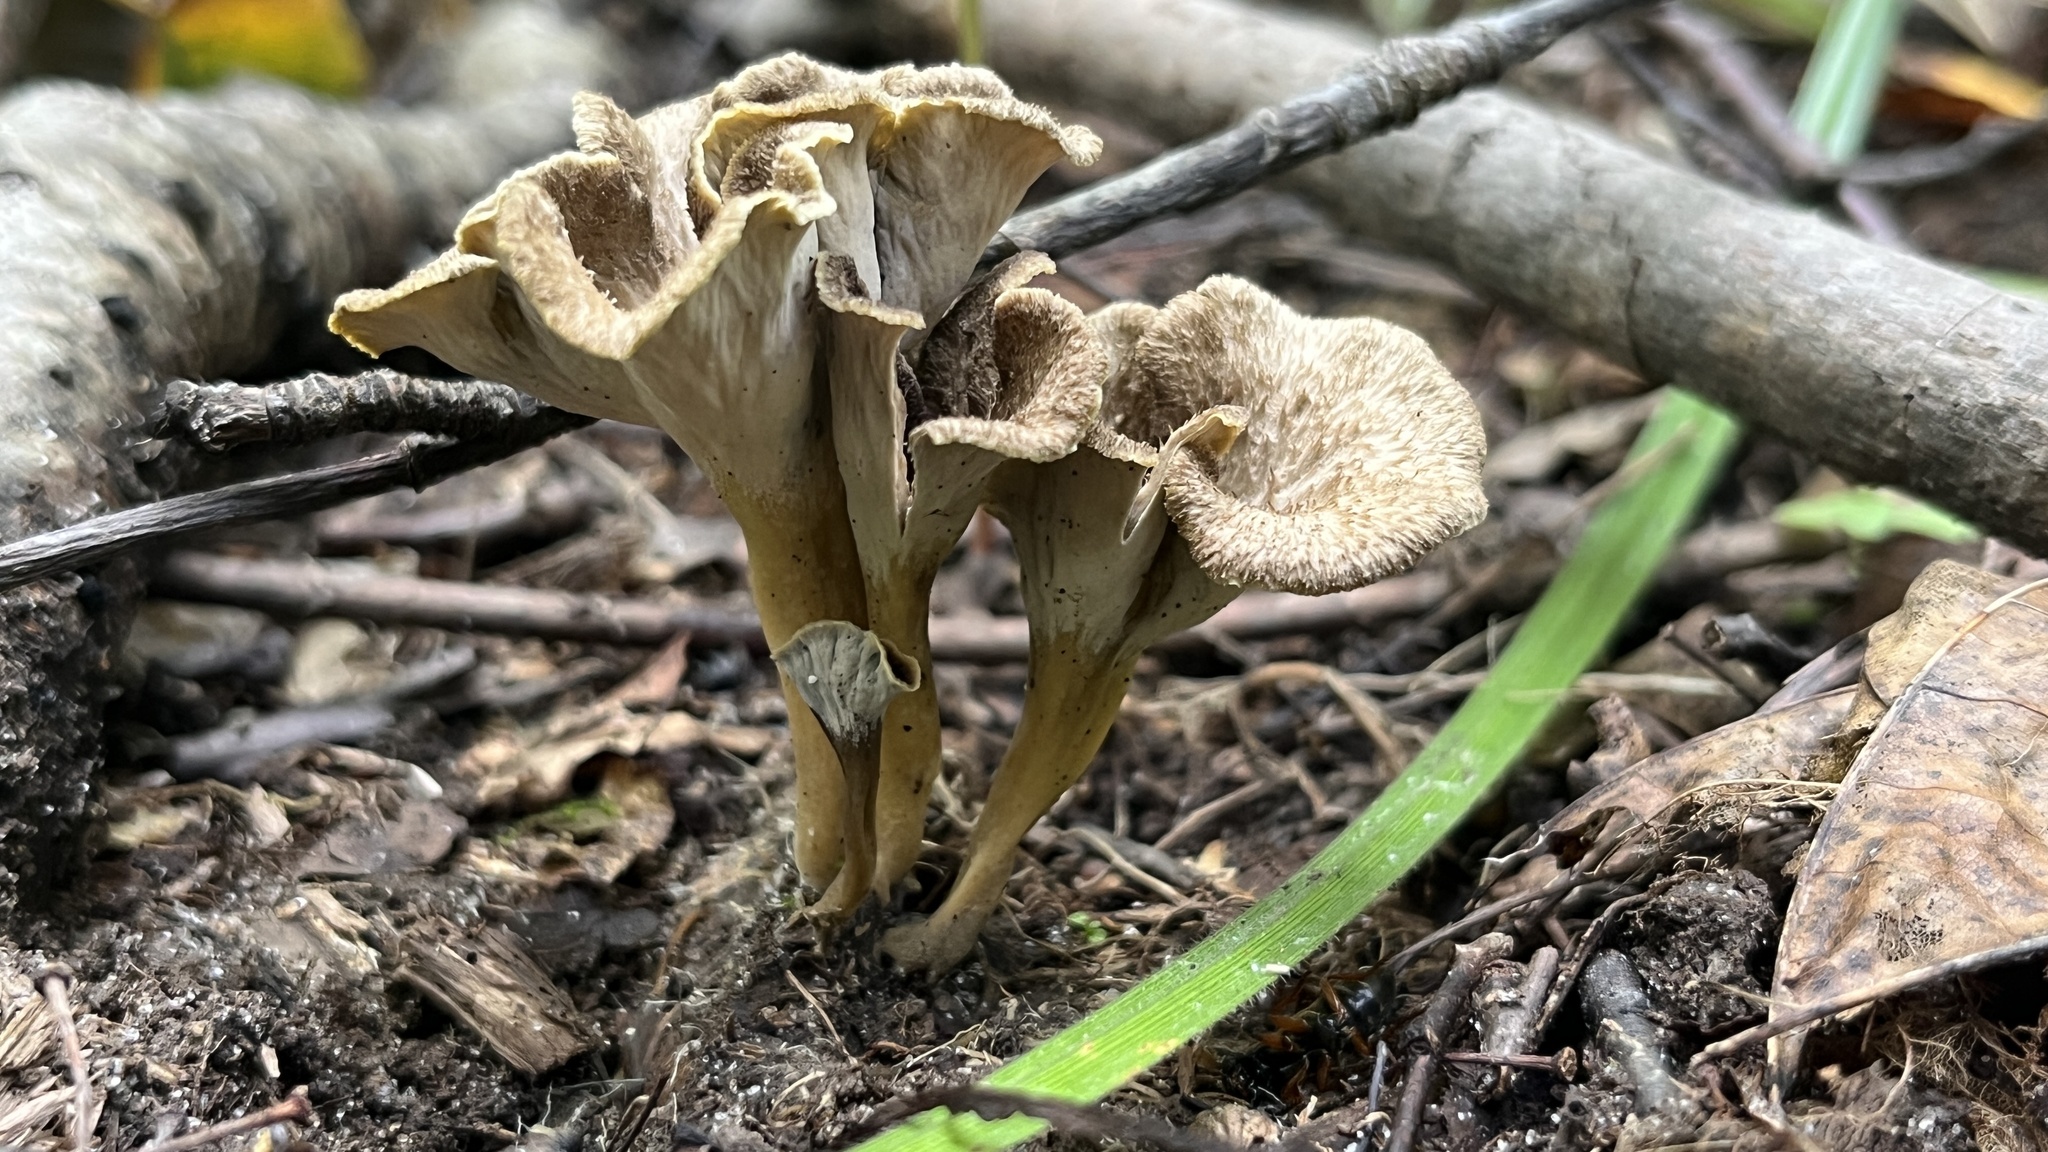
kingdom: Fungi
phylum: Basidiomycota
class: Agaricomycetes
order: Cantharellales
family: Hydnaceae
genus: Craterellus
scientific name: Craterellus undulatus
